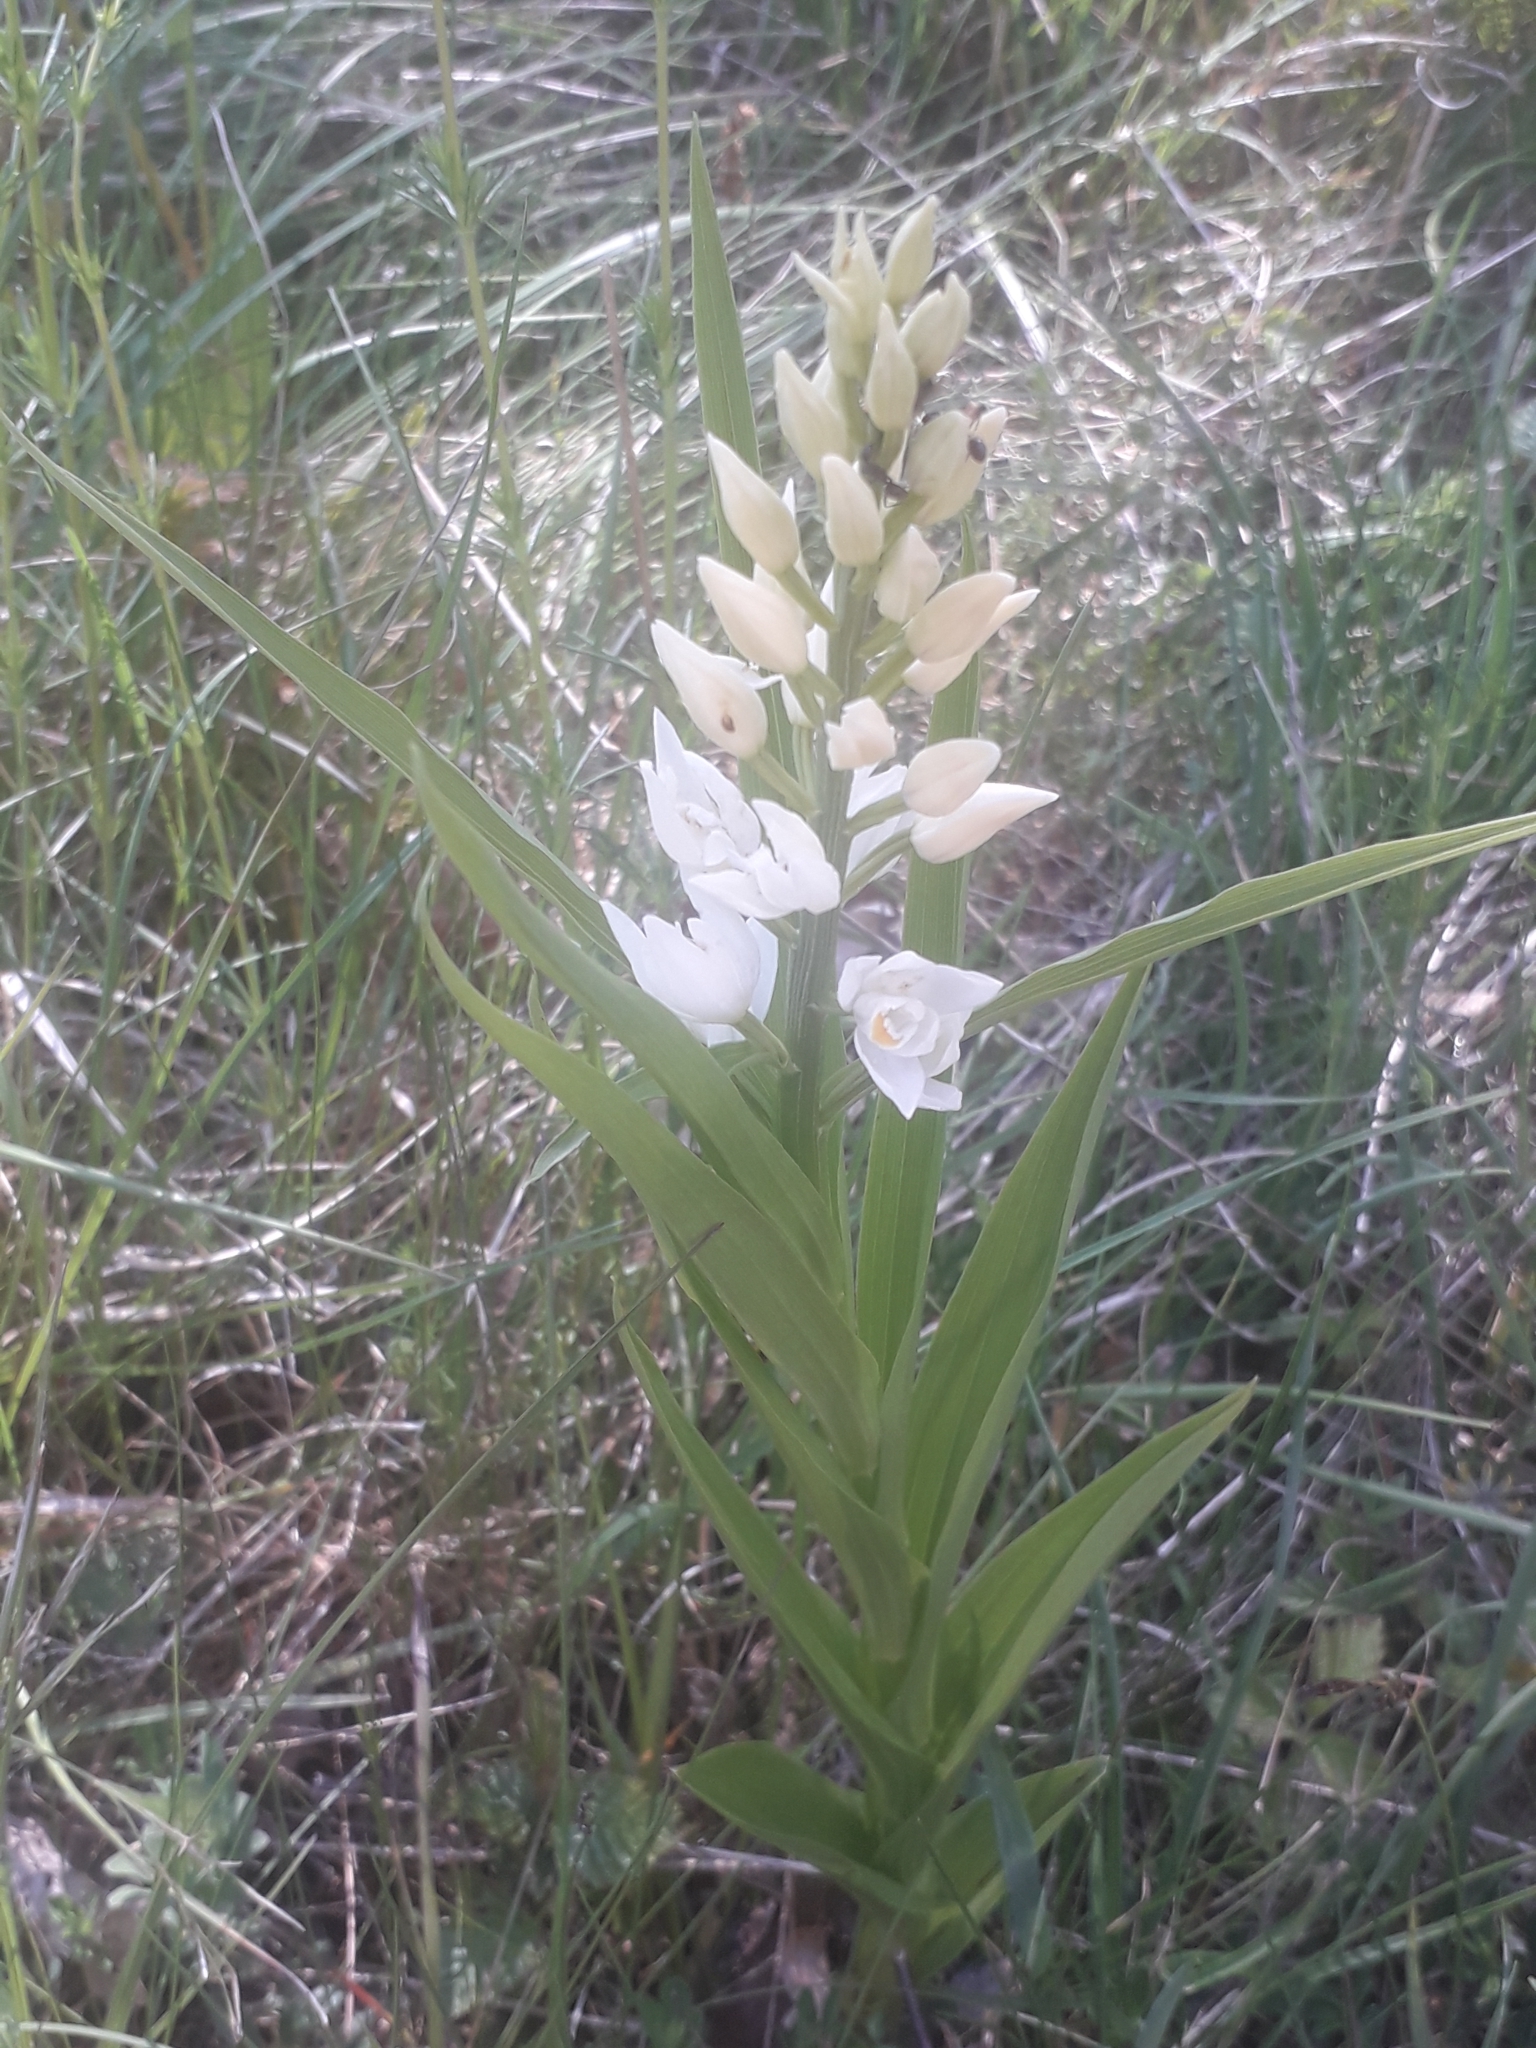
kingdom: Plantae
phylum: Tracheophyta
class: Liliopsida
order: Asparagales
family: Orchidaceae
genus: Cephalanthera
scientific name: Cephalanthera longifolia
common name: Narrow-leaved helleborine
